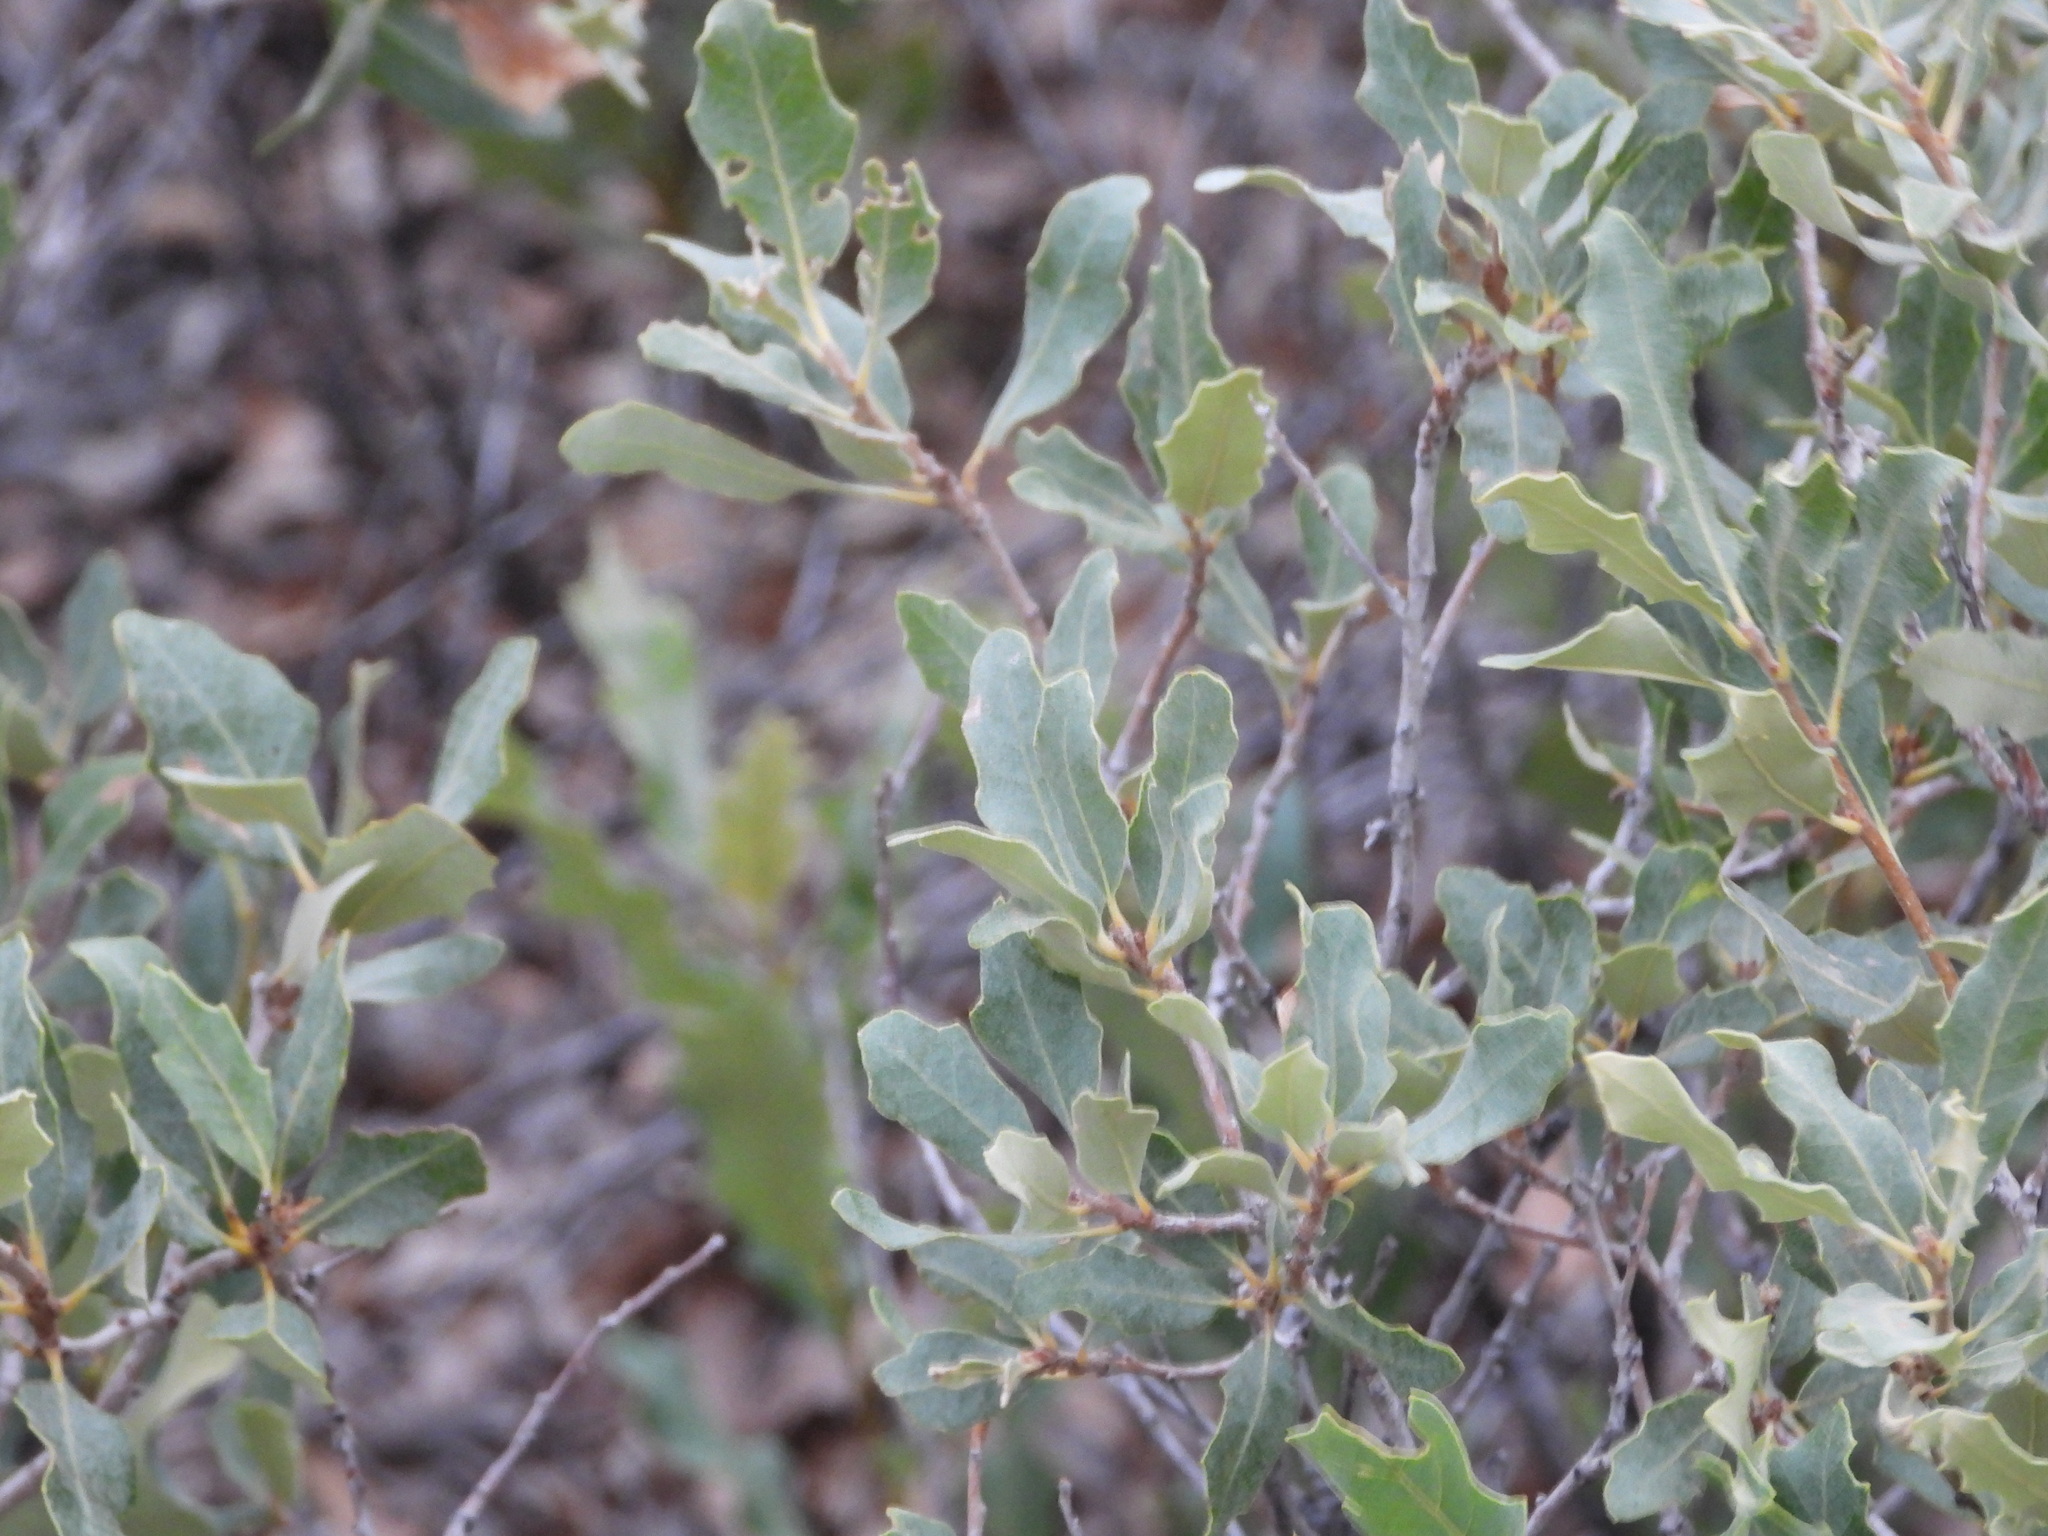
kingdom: Plantae
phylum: Tracheophyta
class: Magnoliopsida
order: Fagales
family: Fagaceae
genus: Quercus
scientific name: Quercus havardii
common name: Shinnery oak
